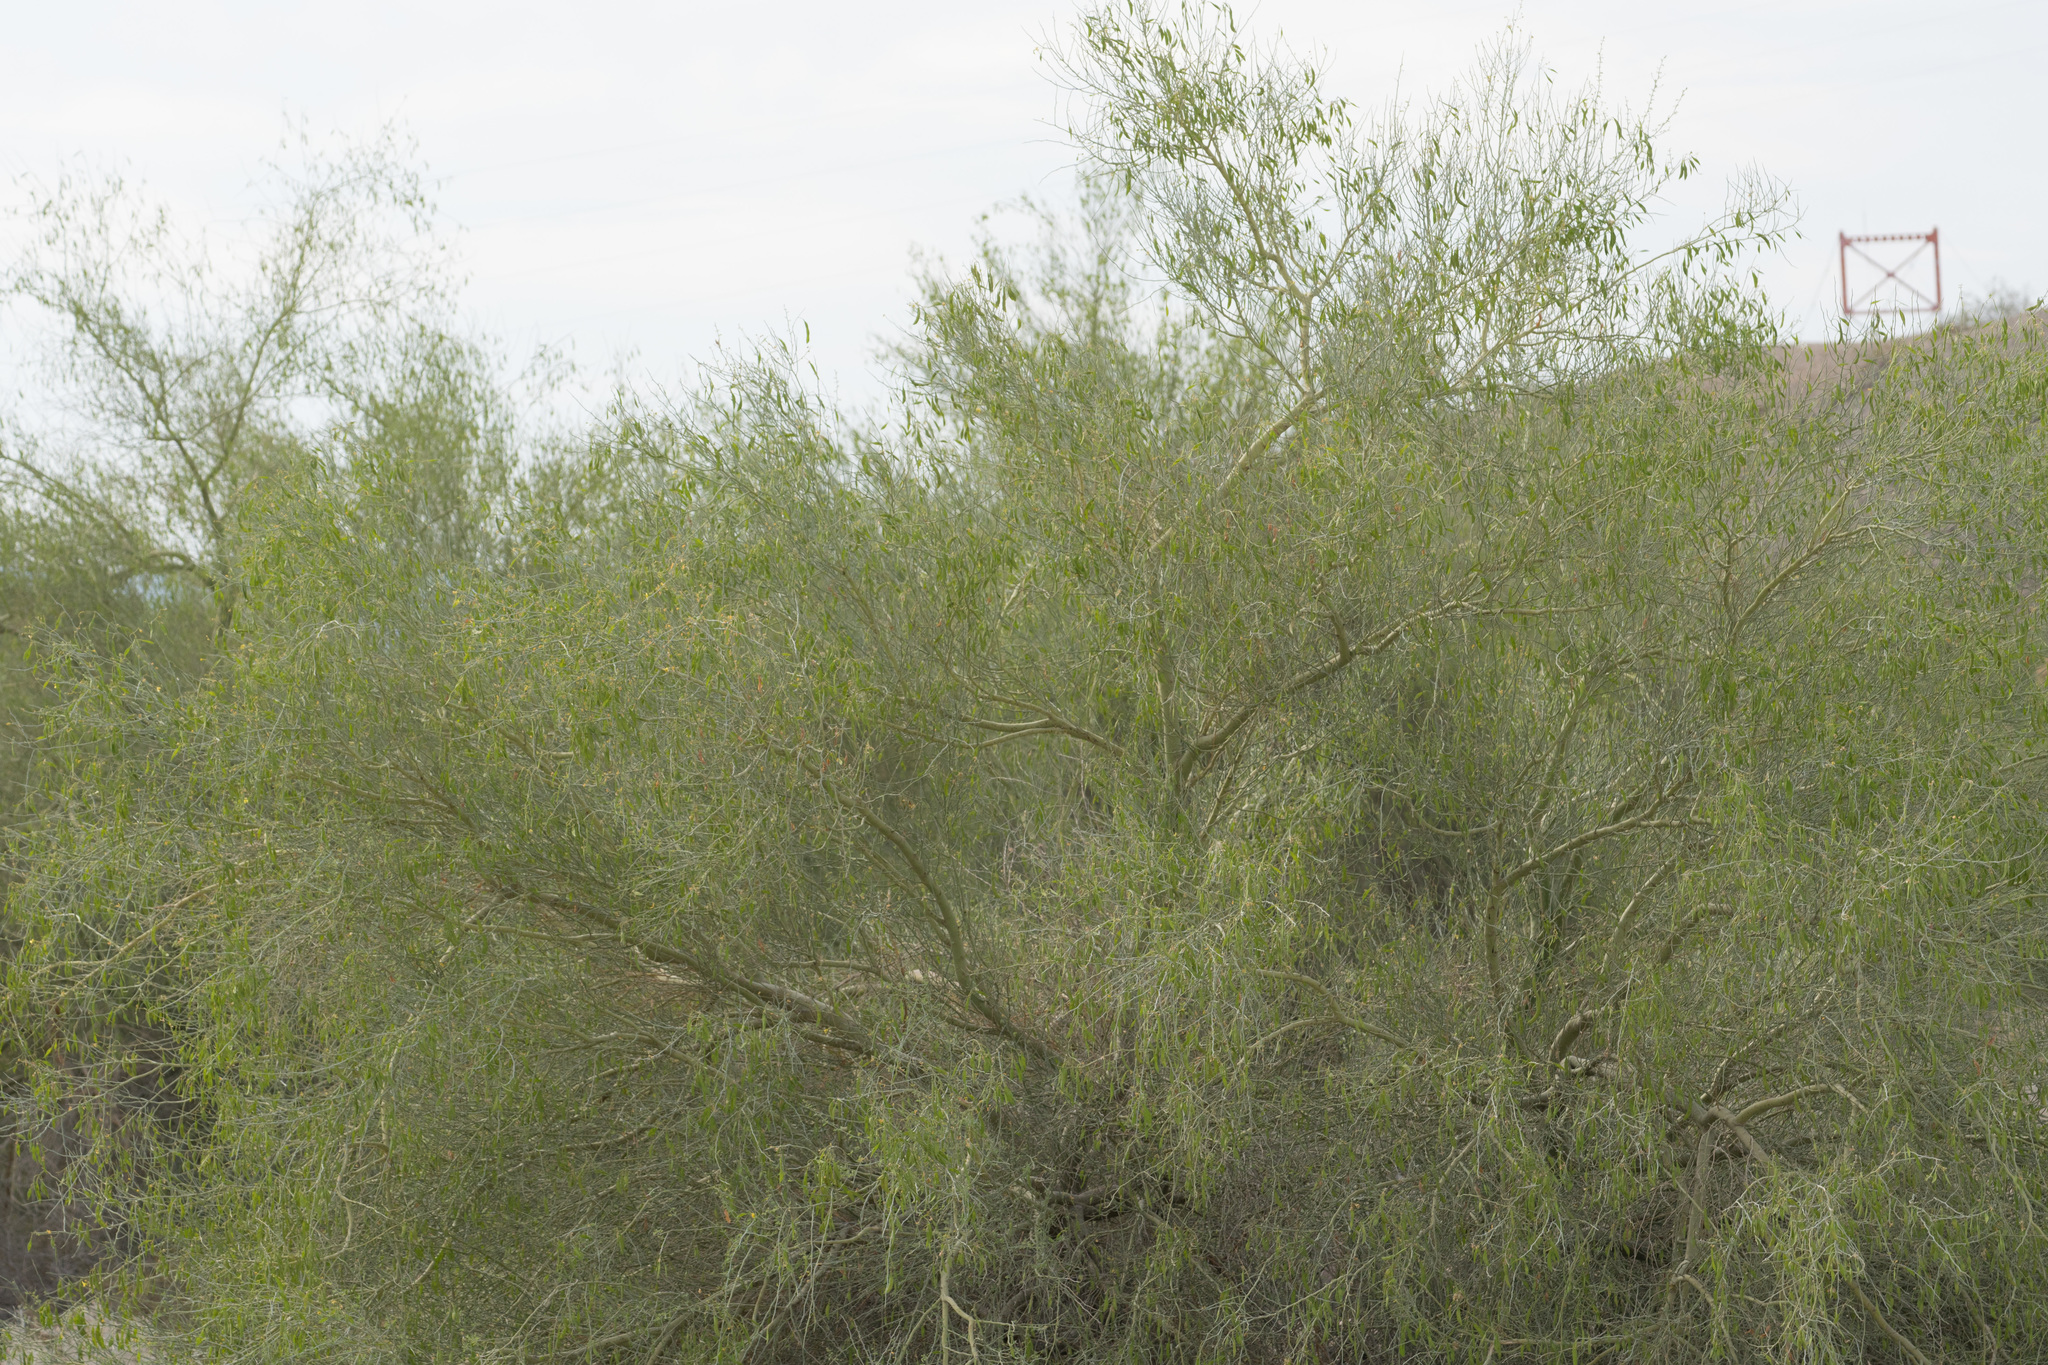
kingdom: Plantae
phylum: Tracheophyta
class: Magnoliopsida
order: Fabales
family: Fabaceae
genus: Parkinsonia
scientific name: Parkinsonia florida
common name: Blue paloverde
